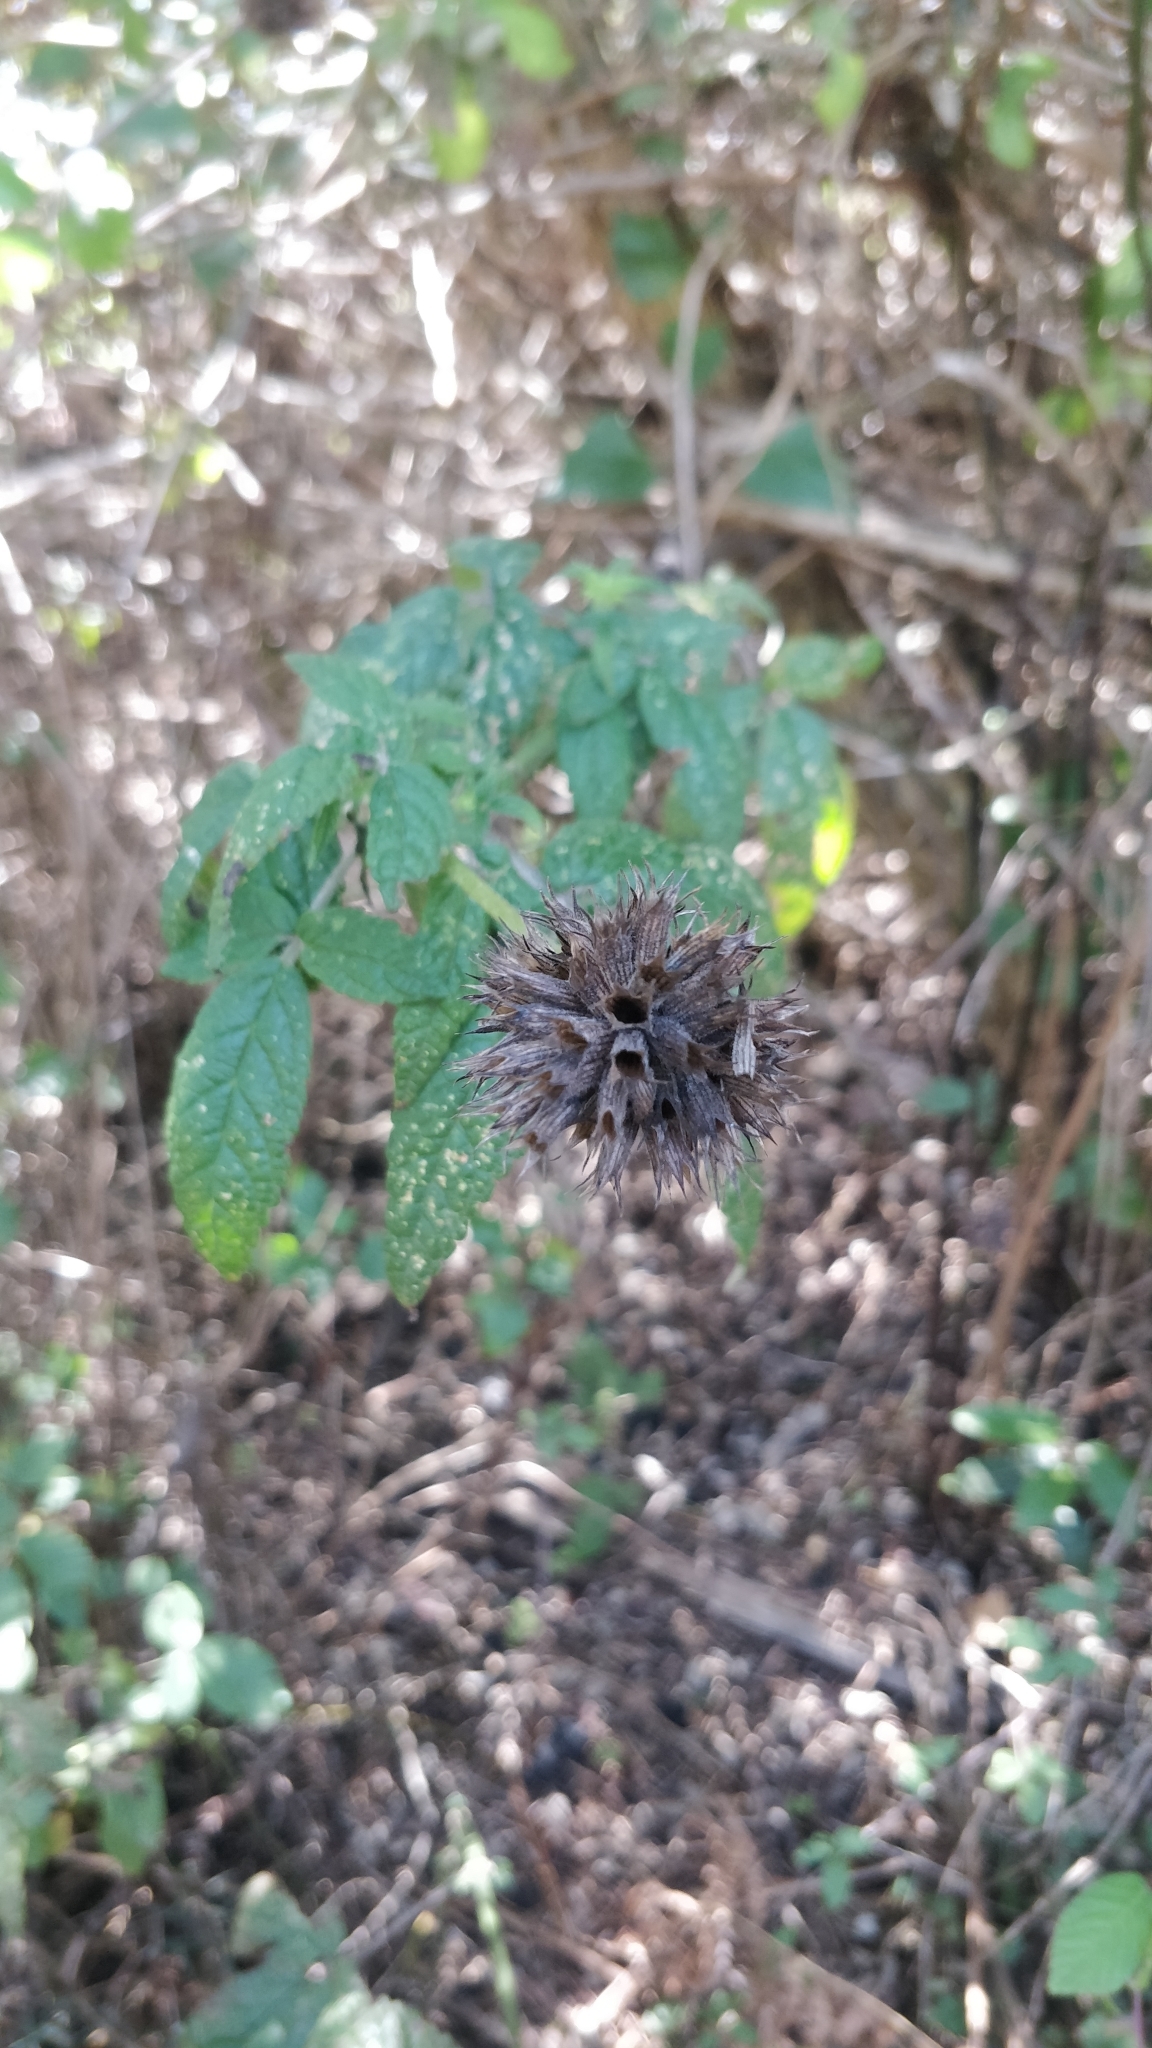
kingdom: Plantae
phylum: Tracheophyta
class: Magnoliopsida
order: Lamiales
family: Lamiaceae
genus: Cedronella
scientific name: Cedronella canariensis
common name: Canary islands balm
